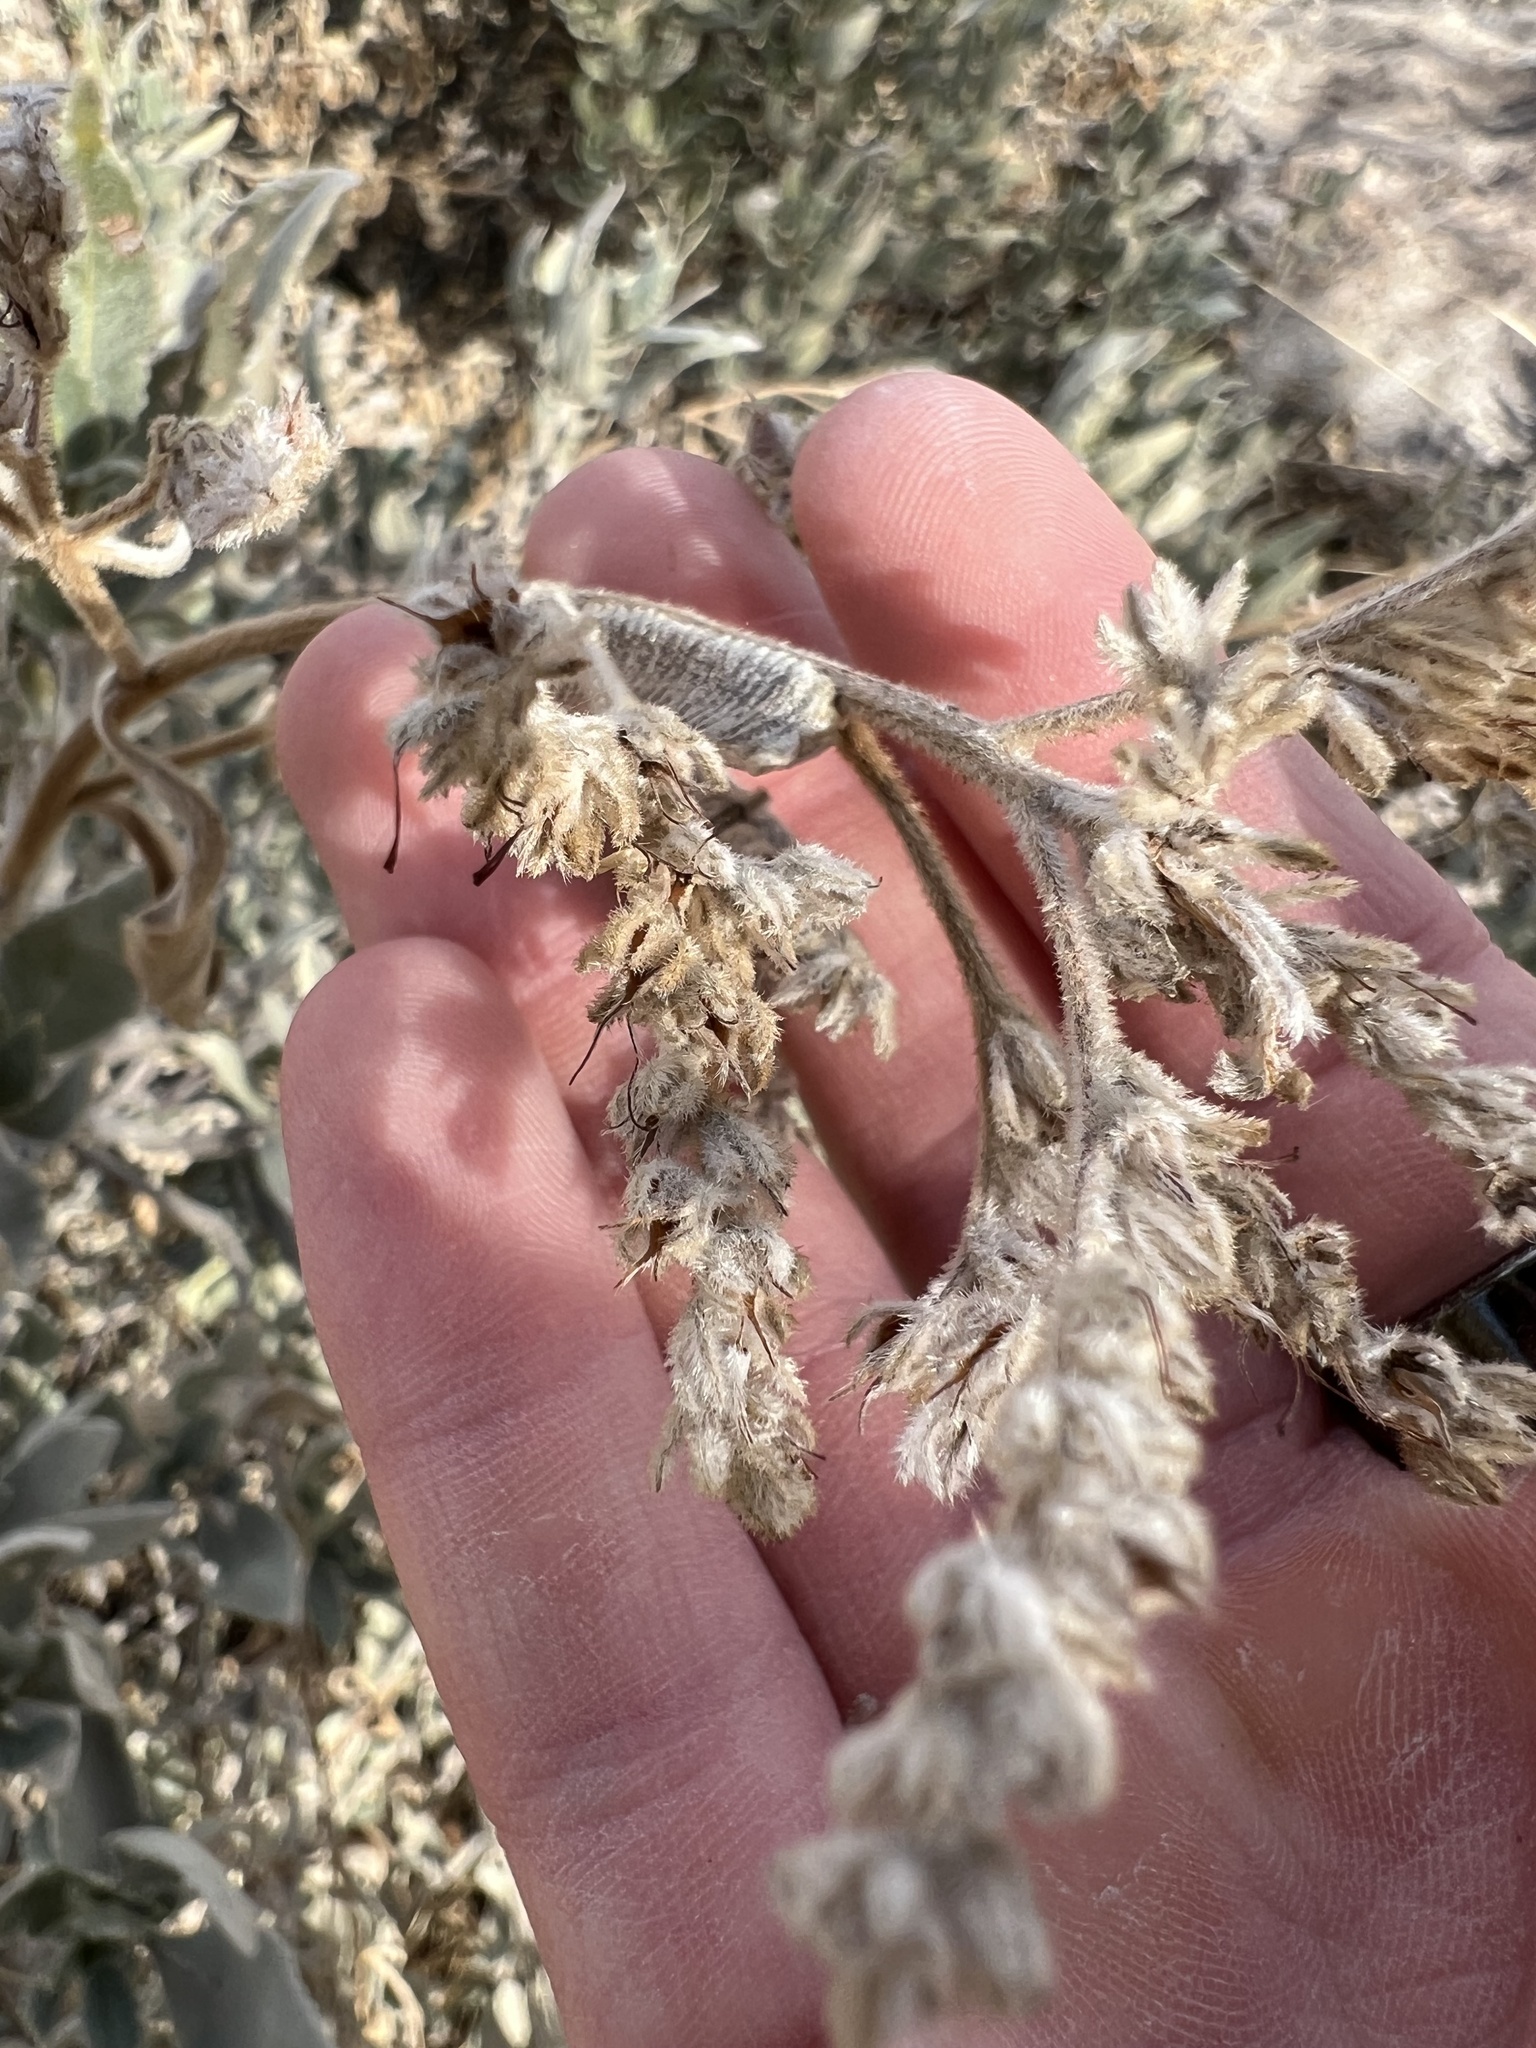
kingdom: Plantae
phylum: Tracheophyta
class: Magnoliopsida
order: Boraginales
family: Namaceae
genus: Eriodictyon
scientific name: Eriodictyon crassifolium
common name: Thick-leaf yerba-santa
